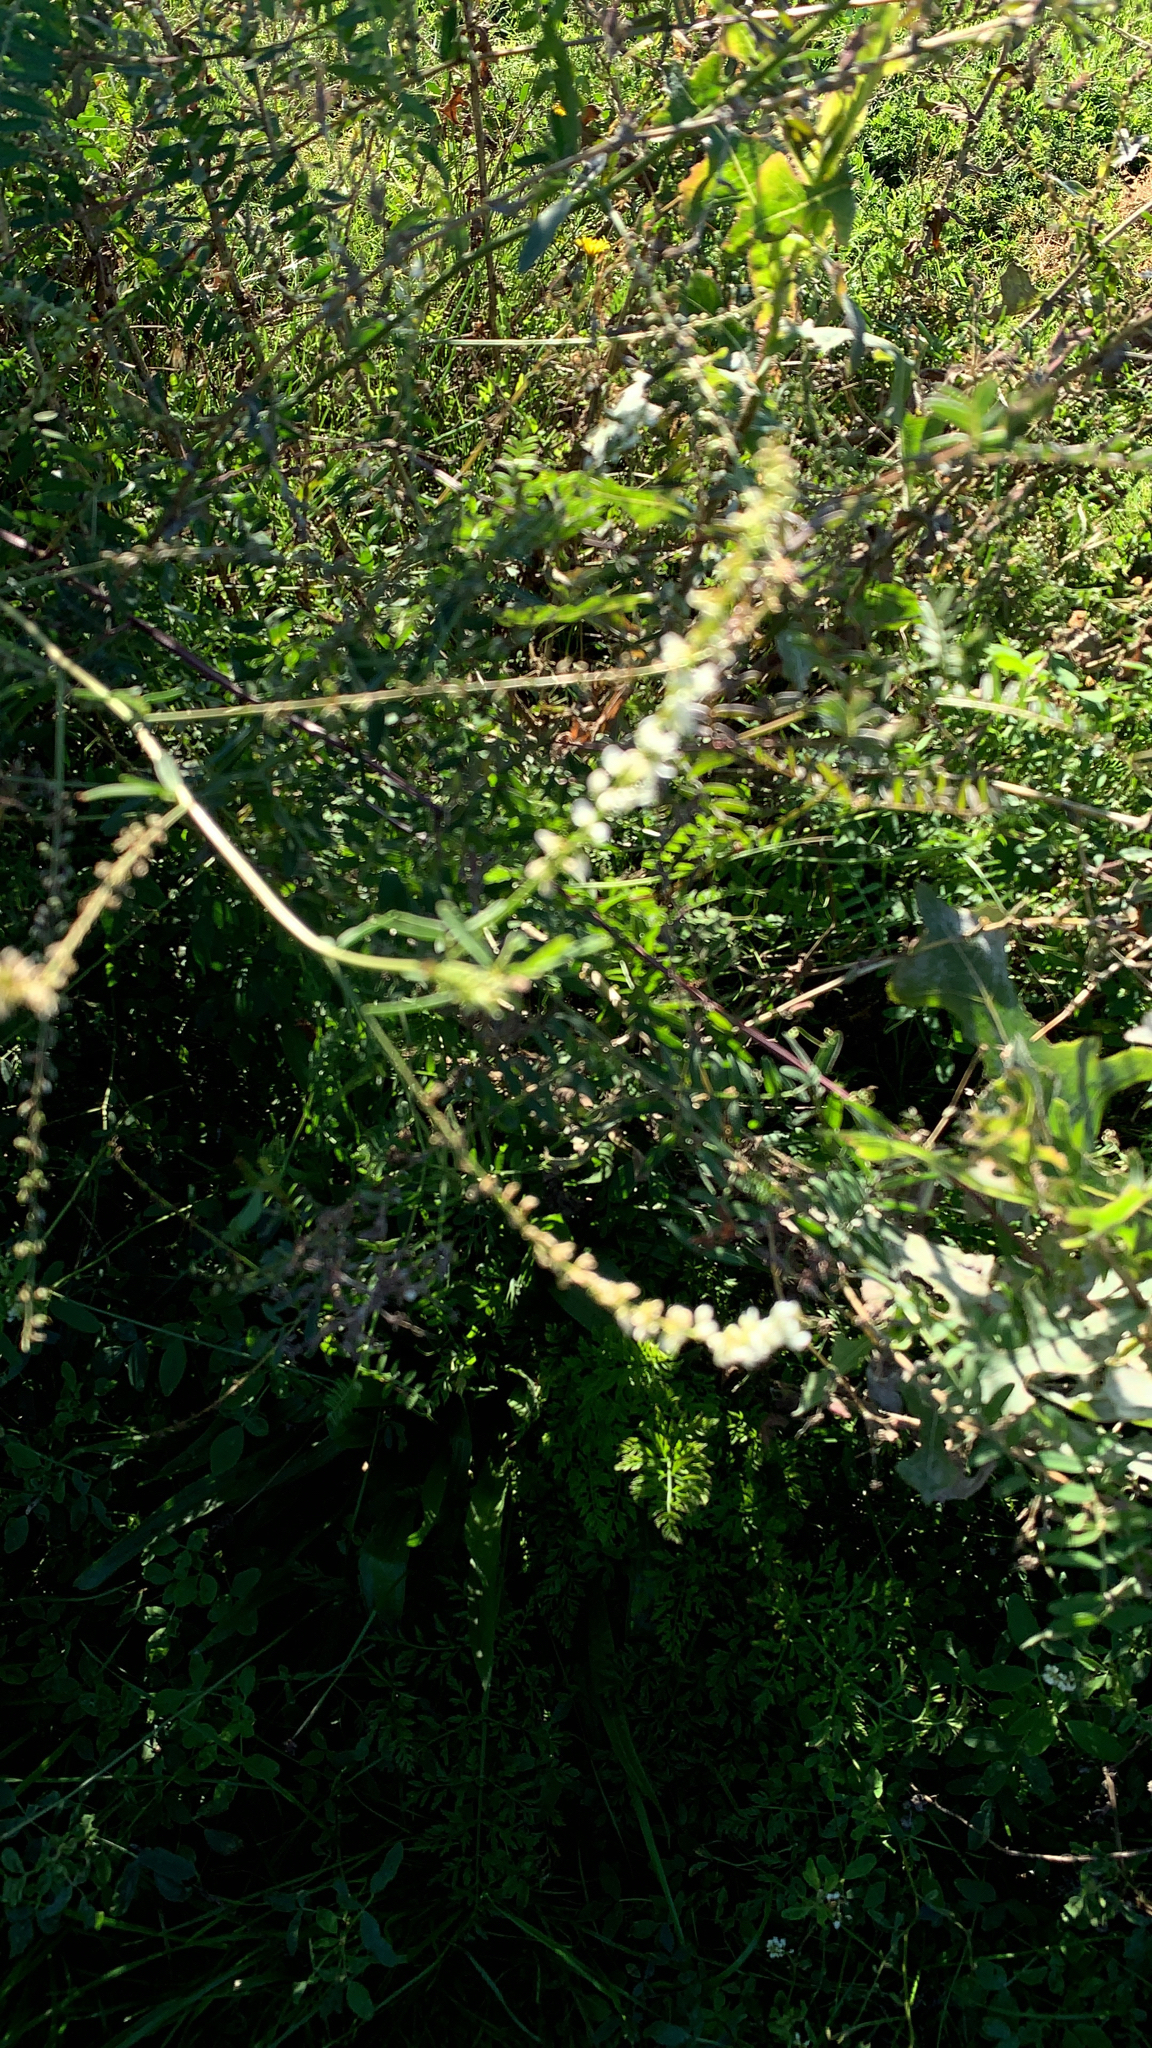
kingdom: Plantae
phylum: Tracheophyta
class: Magnoliopsida
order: Fabales
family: Fabaceae
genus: Melilotus
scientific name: Melilotus albus
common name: White melilot
